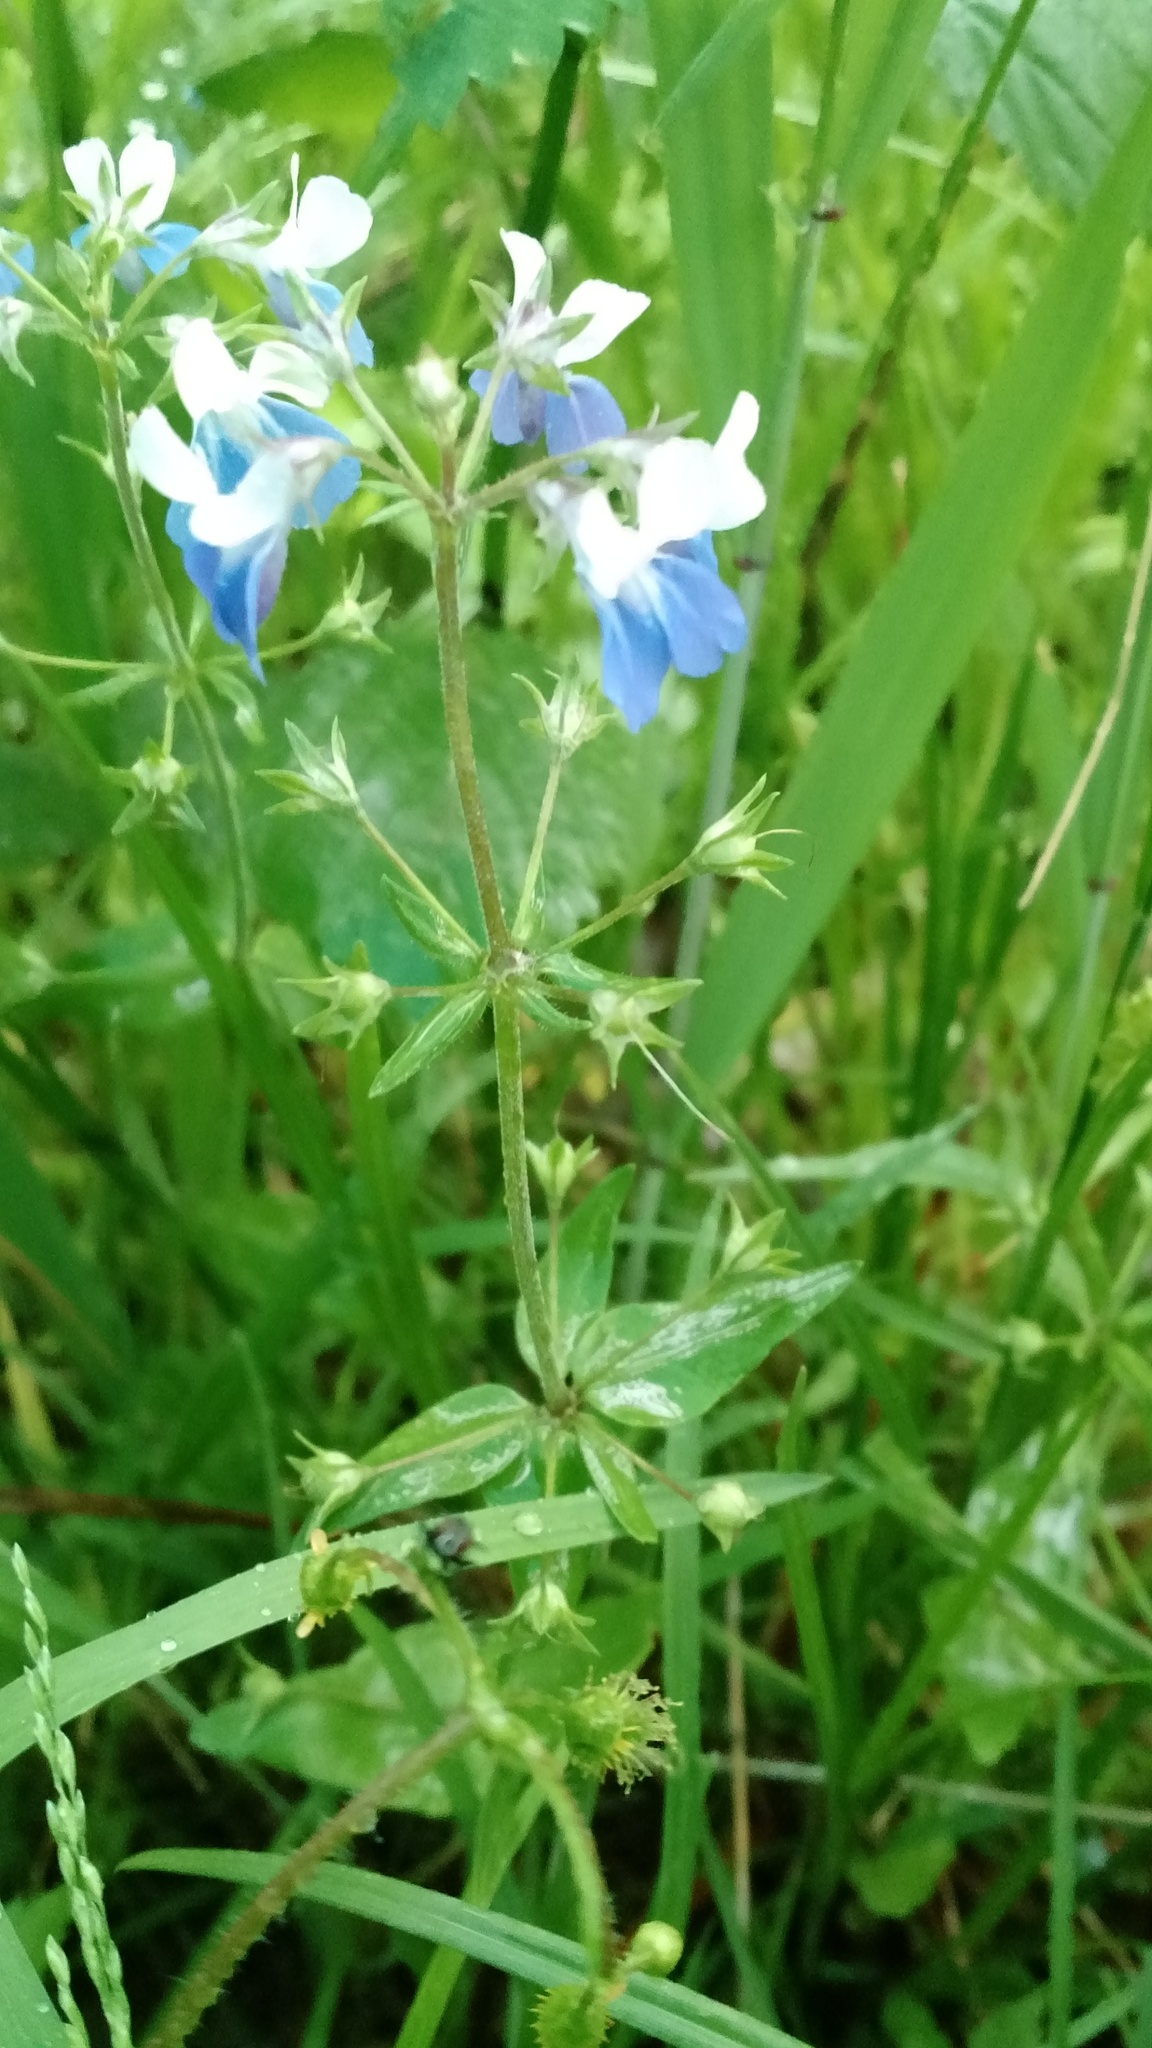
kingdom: Plantae
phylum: Tracheophyta
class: Magnoliopsida
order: Lamiales
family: Plantaginaceae
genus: Collinsia
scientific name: Collinsia verna
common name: Broad-leaved collinsia
